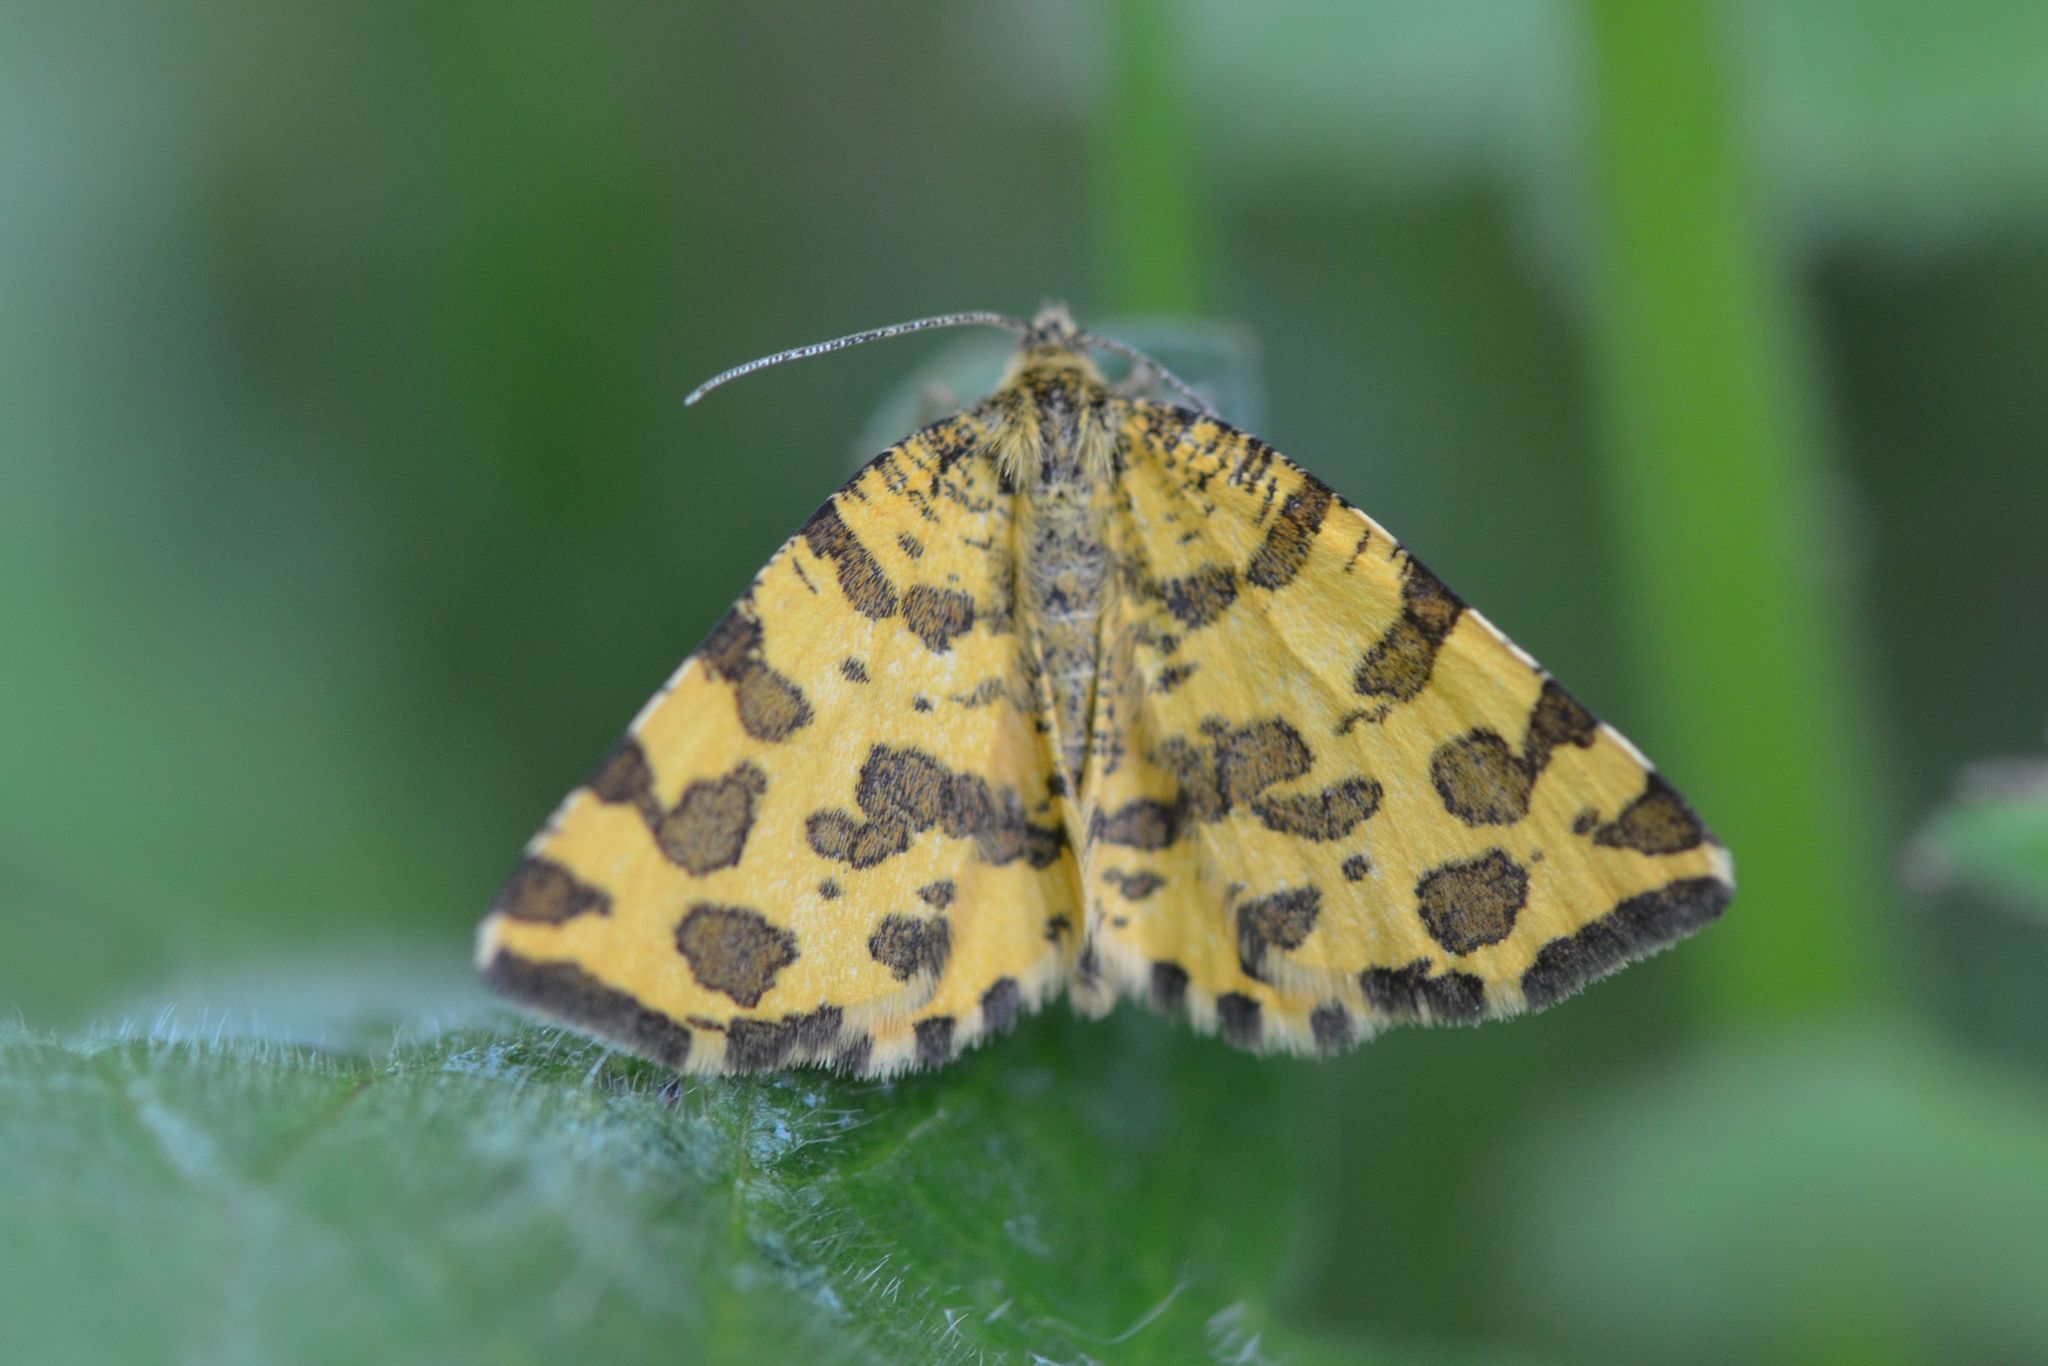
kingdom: Animalia
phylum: Arthropoda
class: Insecta
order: Lepidoptera
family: Geometridae
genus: Pseudopanthera
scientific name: Pseudopanthera macularia
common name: Speckled yellow
